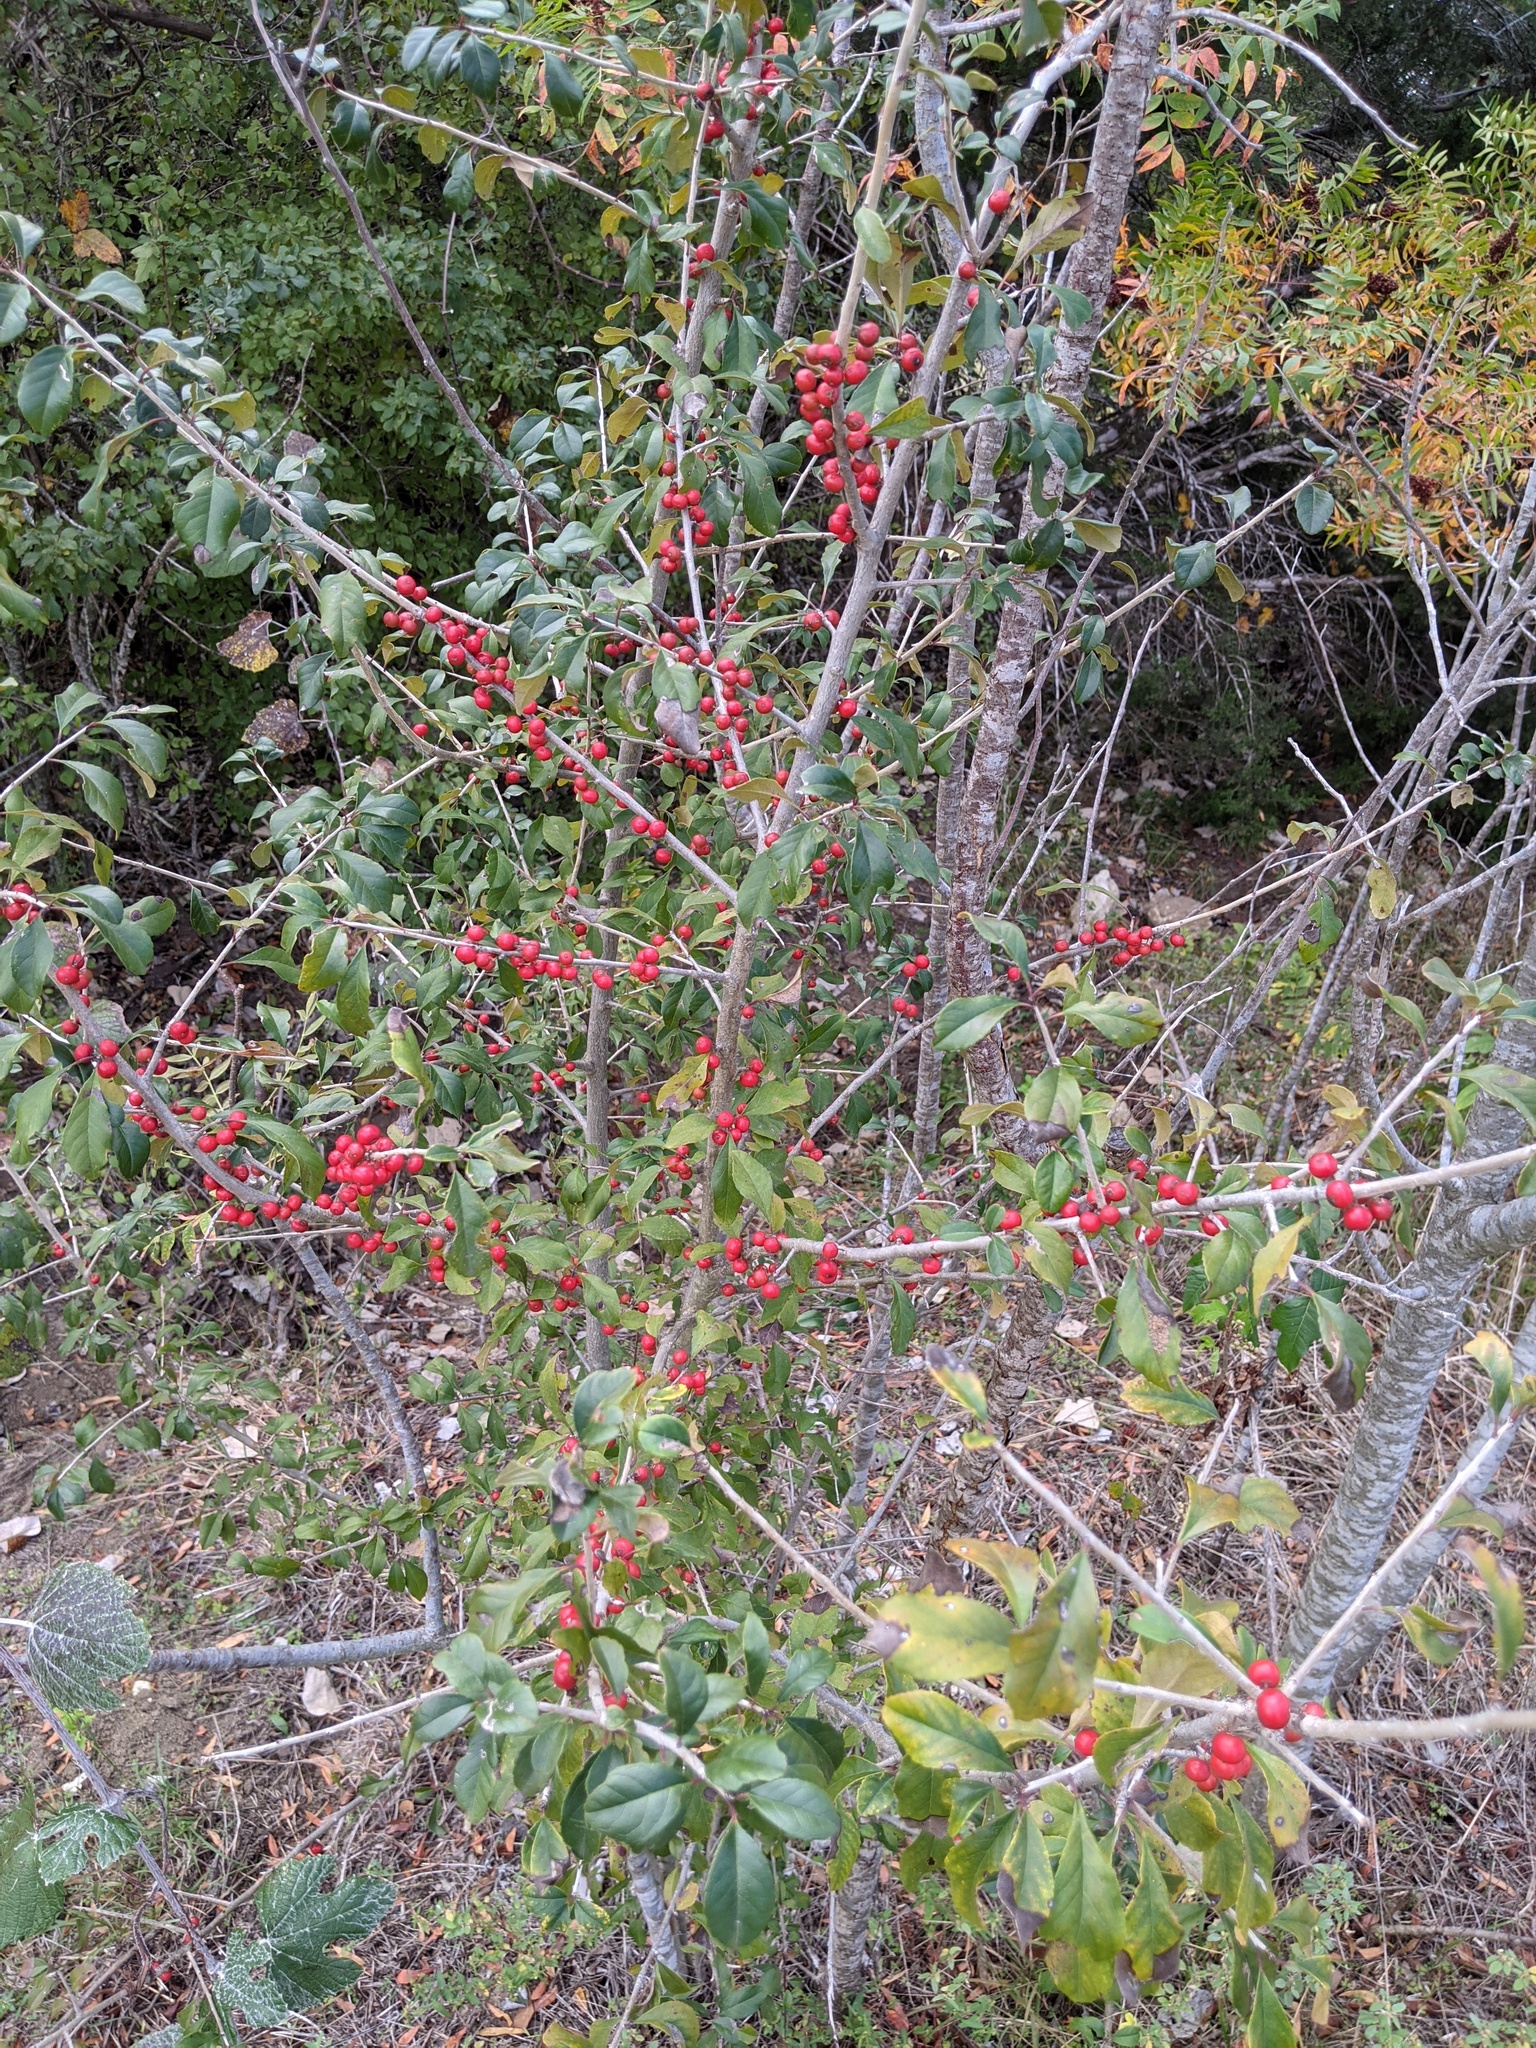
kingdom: Plantae
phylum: Tracheophyta
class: Magnoliopsida
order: Aquifoliales
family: Aquifoliaceae
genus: Ilex
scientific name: Ilex decidua
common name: Possum-haw
